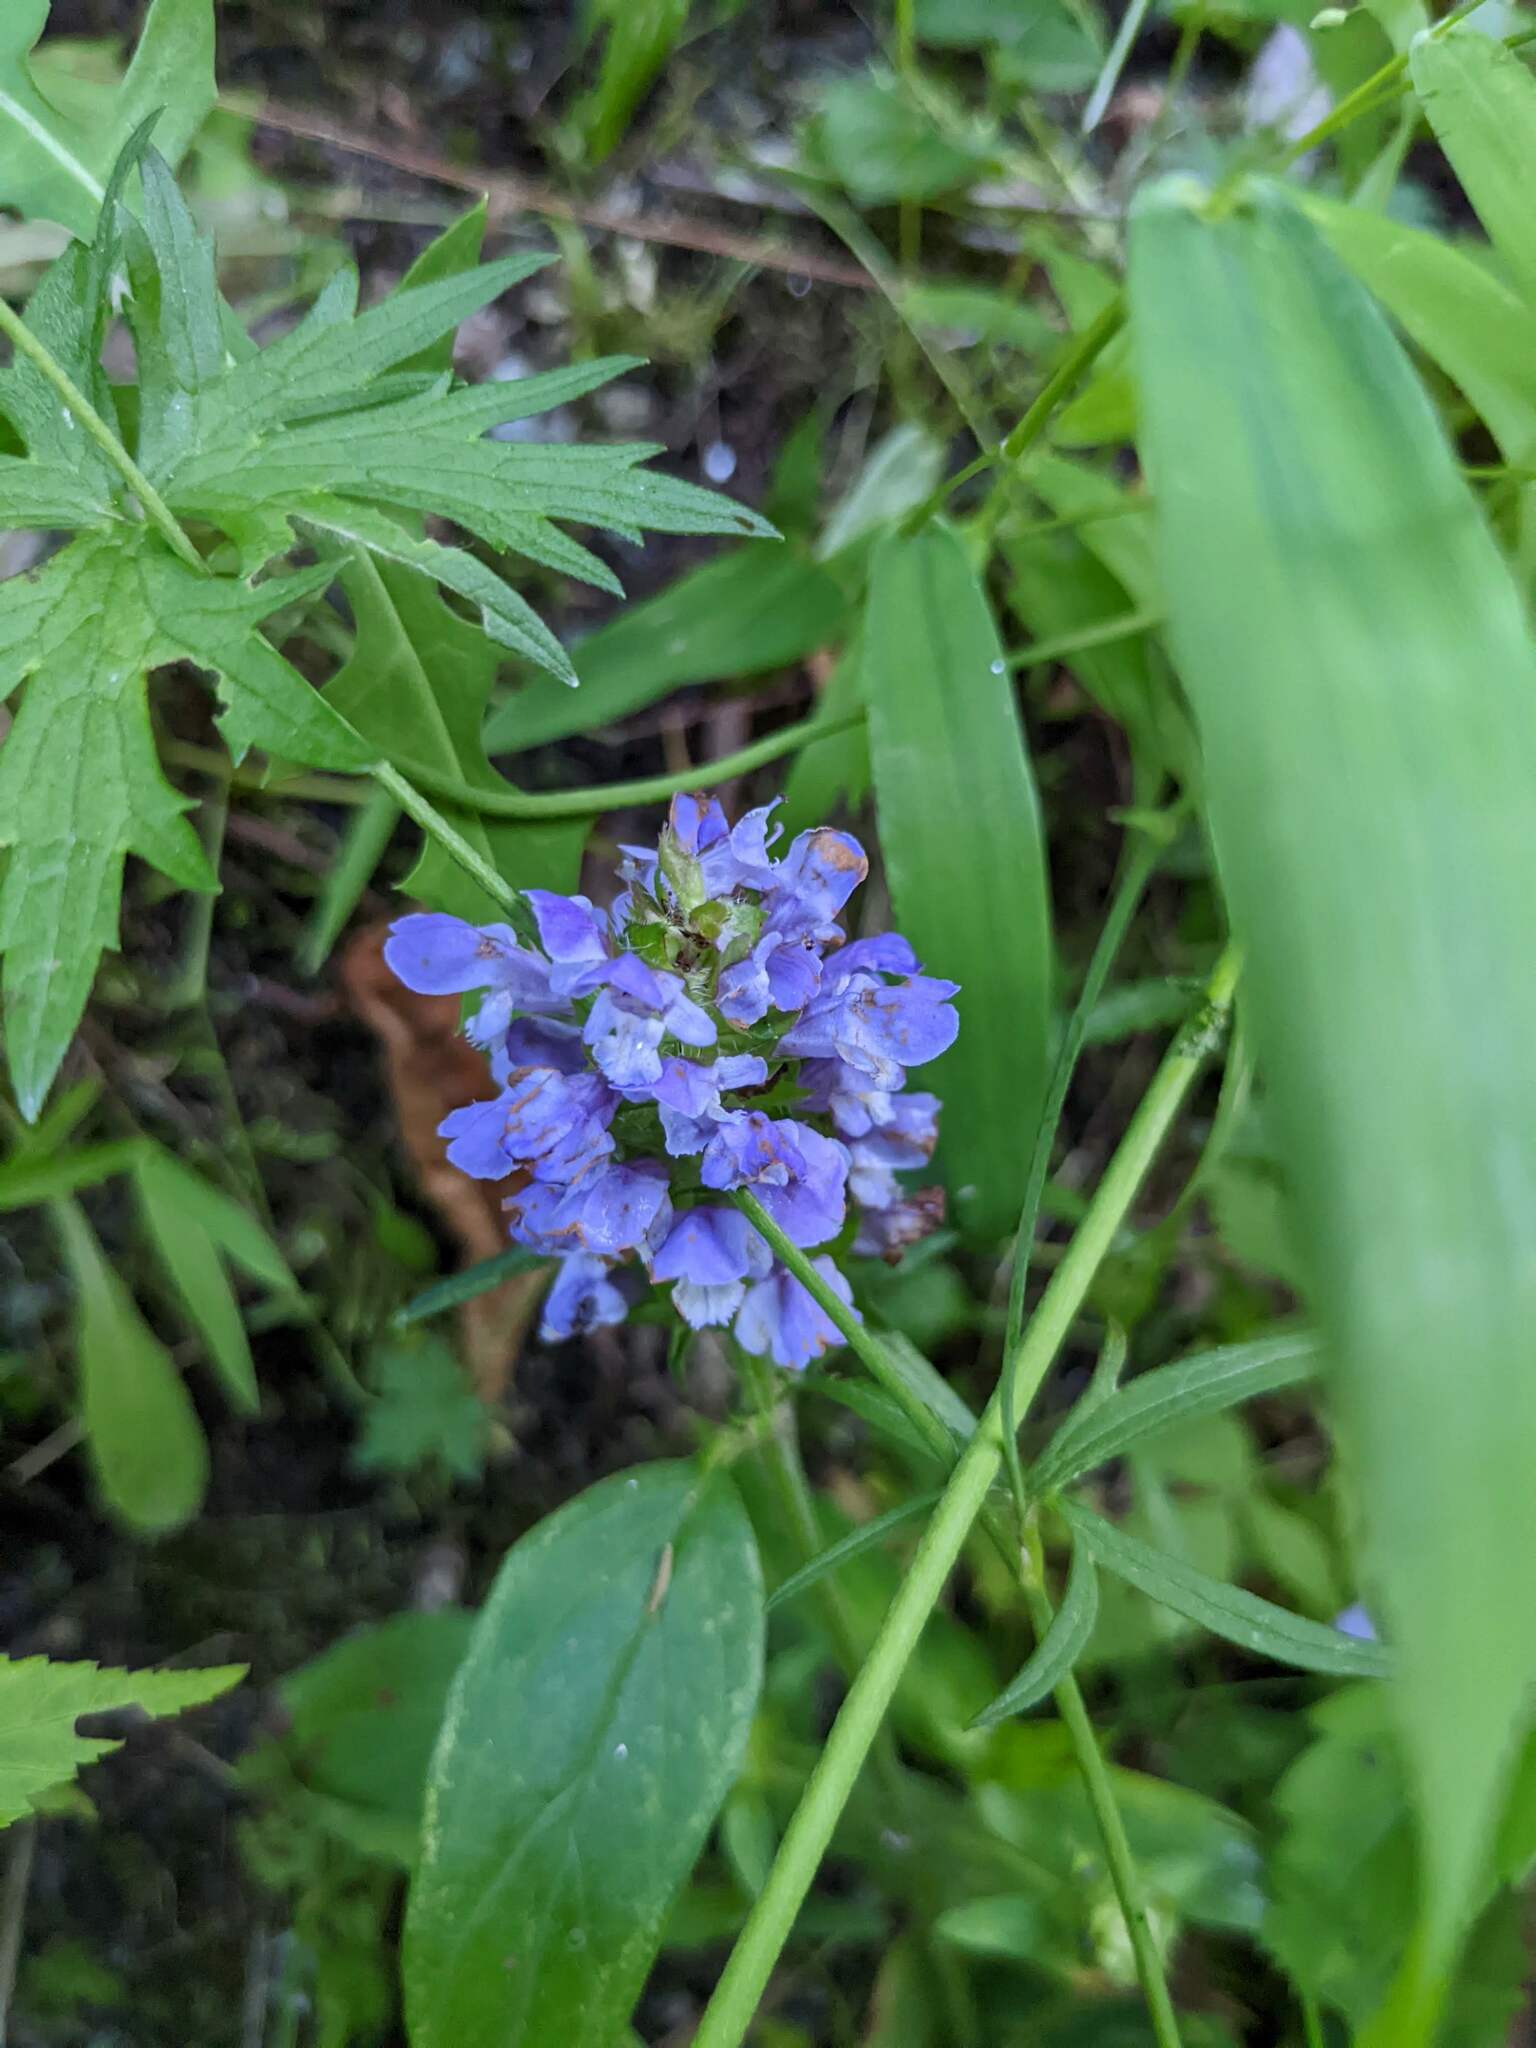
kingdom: Plantae
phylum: Tracheophyta
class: Magnoliopsida
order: Lamiales
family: Lamiaceae
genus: Prunella
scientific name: Prunella vulgaris
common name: Heal-all
